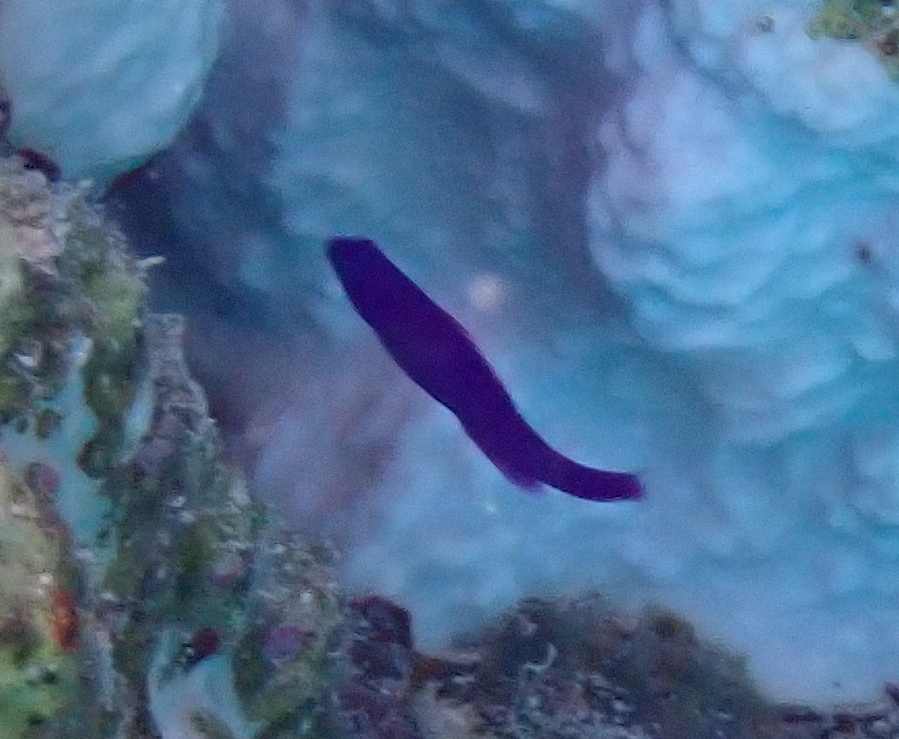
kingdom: Animalia
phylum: Chordata
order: Perciformes
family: Pseudochromidae
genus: Pseudochromis
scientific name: Pseudochromis fridmani
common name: Orchid dottyback
